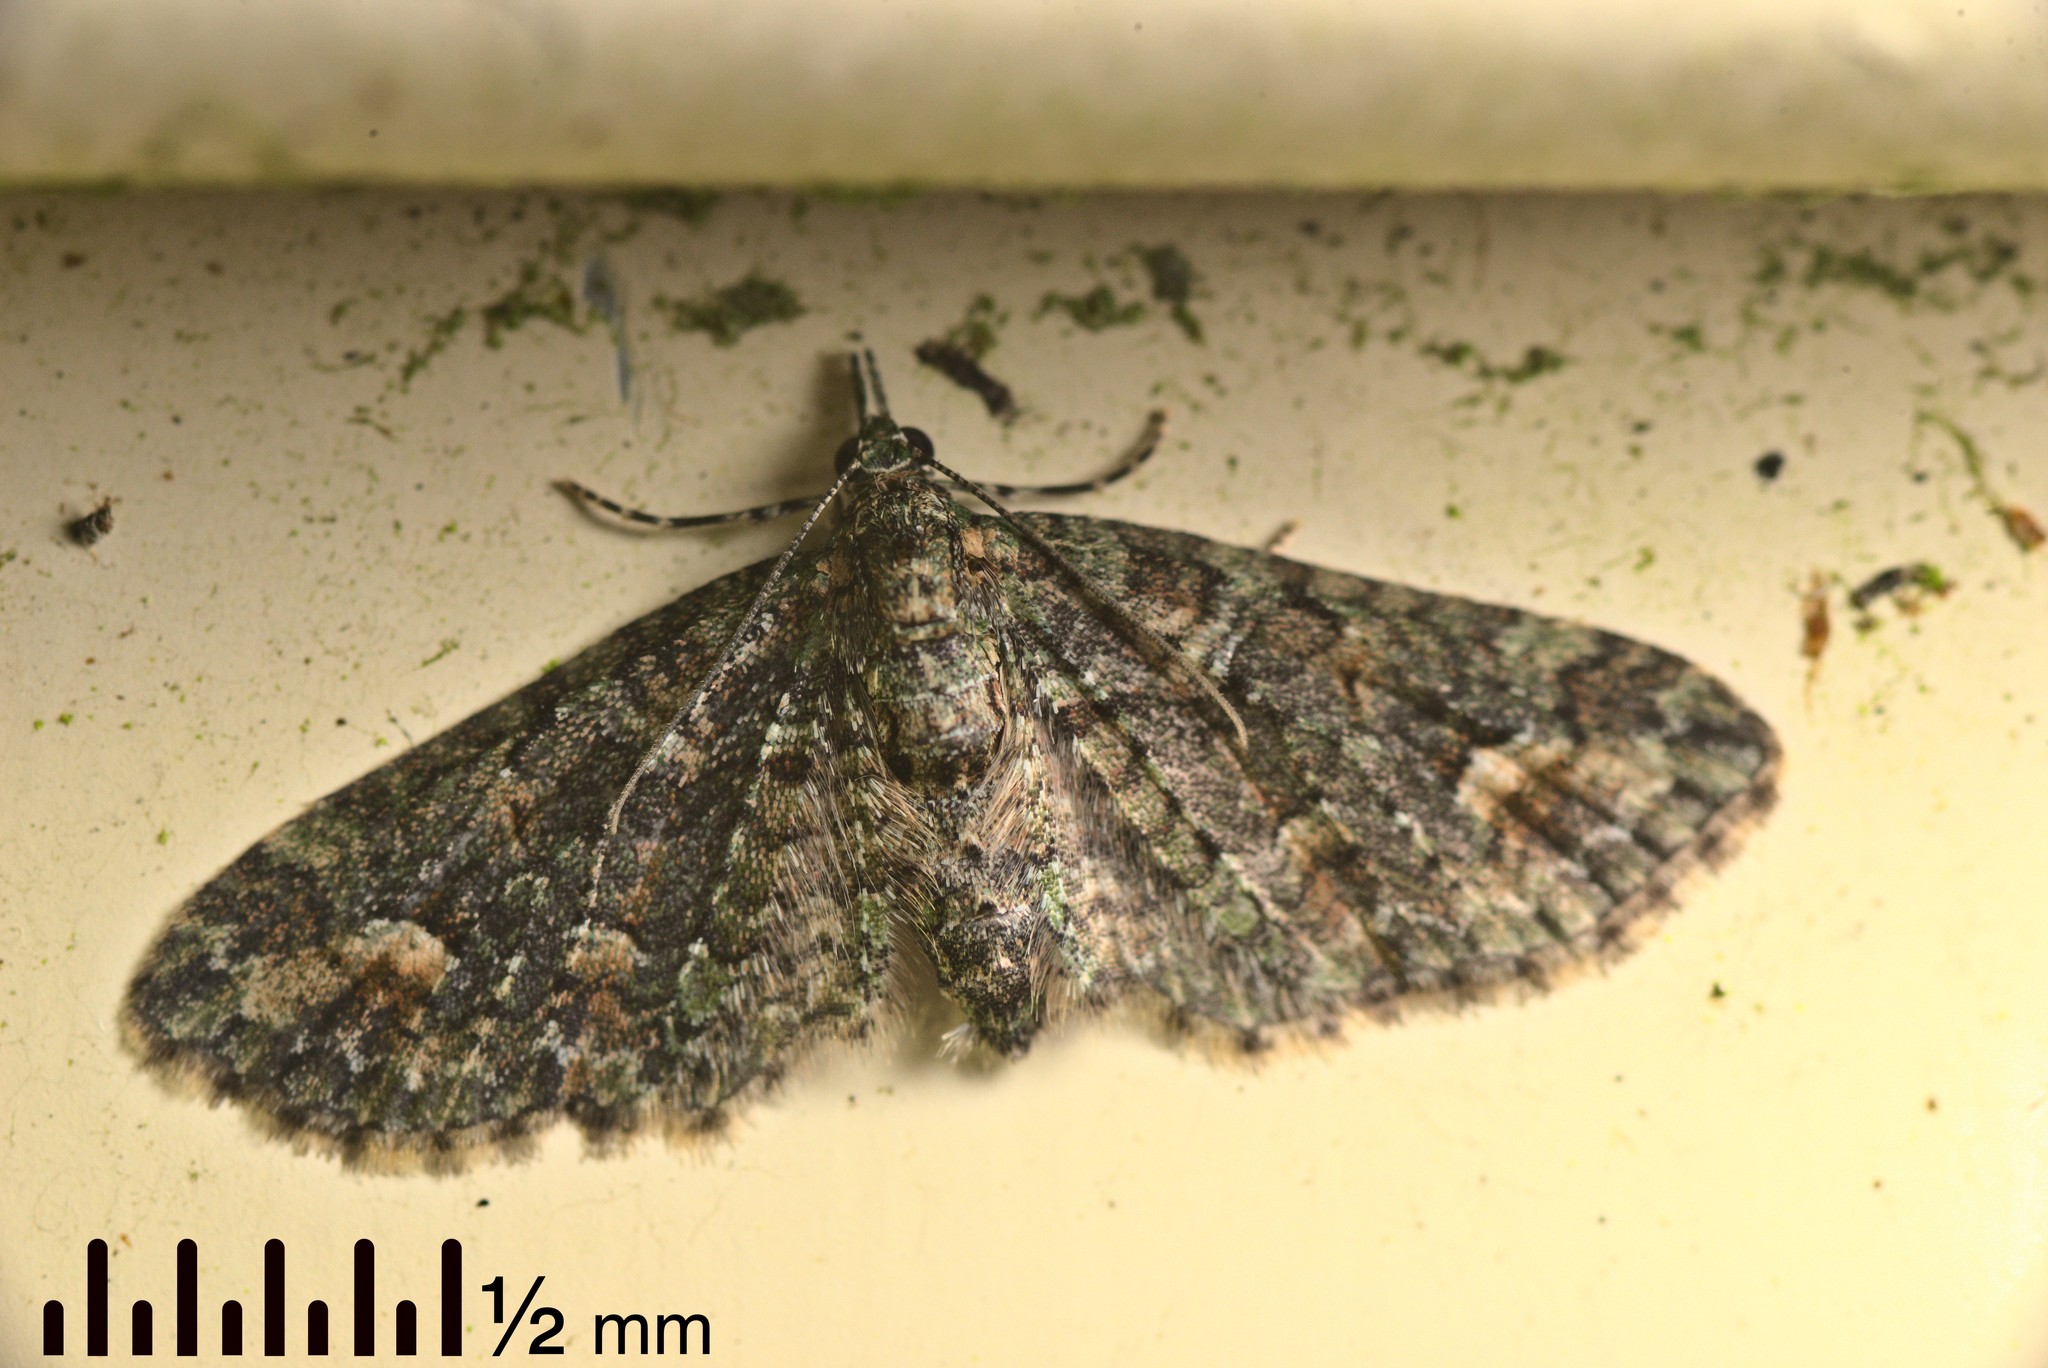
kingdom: Animalia
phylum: Arthropoda
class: Insecta
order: Lepidoptera
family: Geometridae
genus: Pasiphilodes
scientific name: Pasiphilodes testulata
